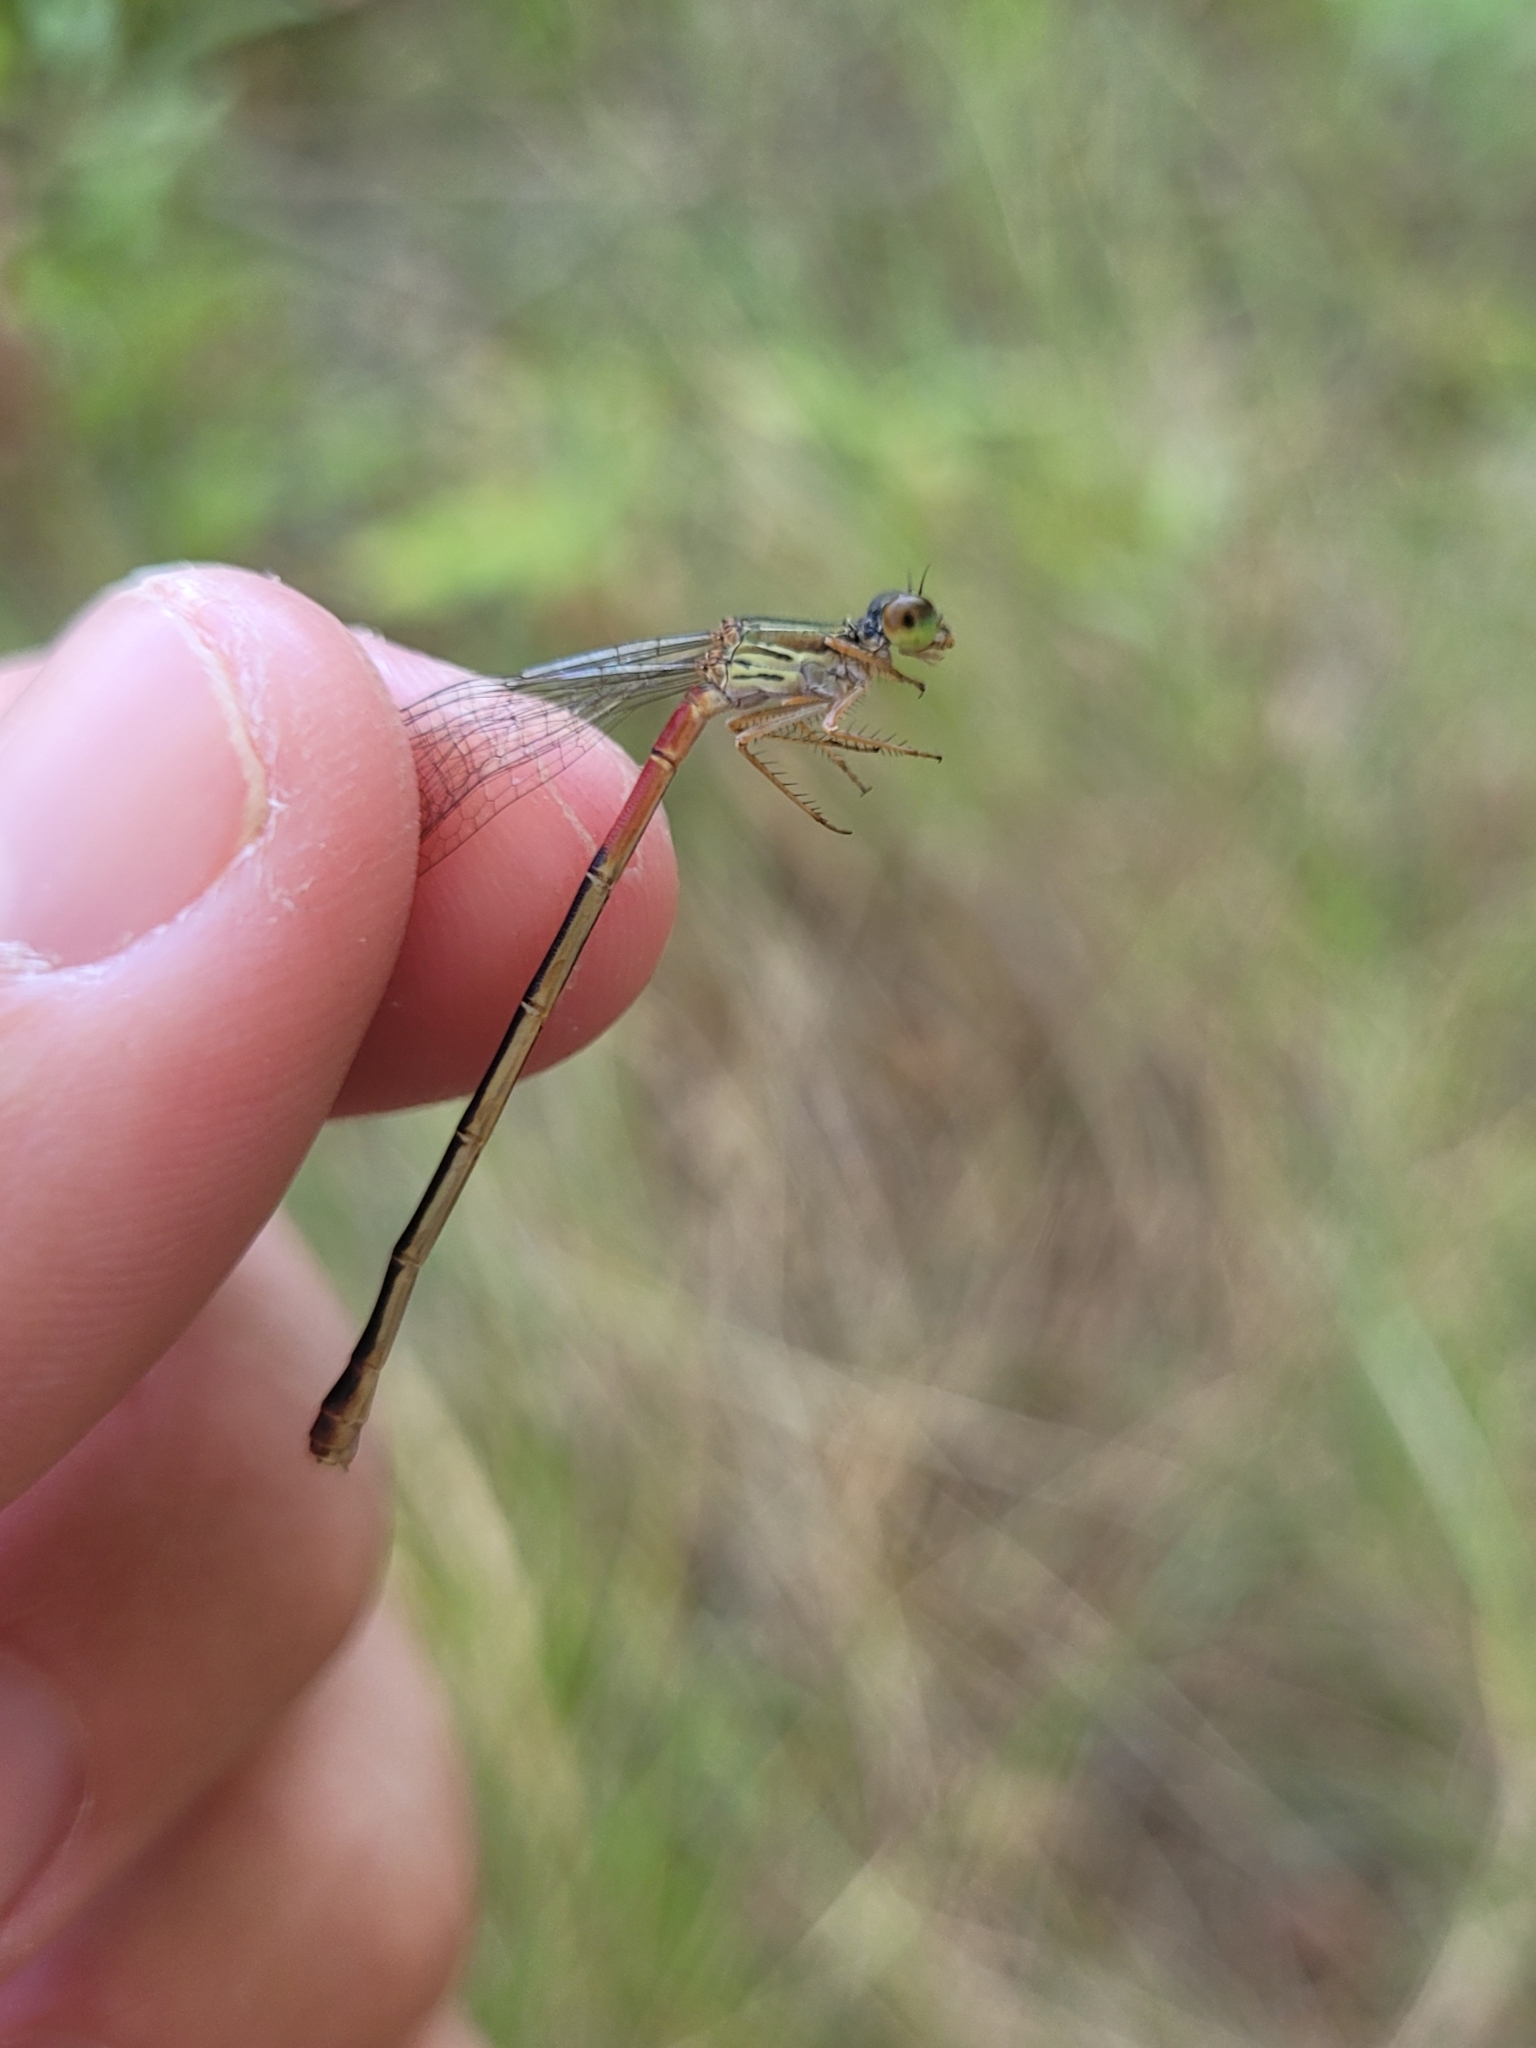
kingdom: Animalia
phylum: Arthropoda
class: Insecta
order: Odonata
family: Coenagrionidae
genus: Ceriagrion
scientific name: Ceriagrion tenellum
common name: Small red damselfly
